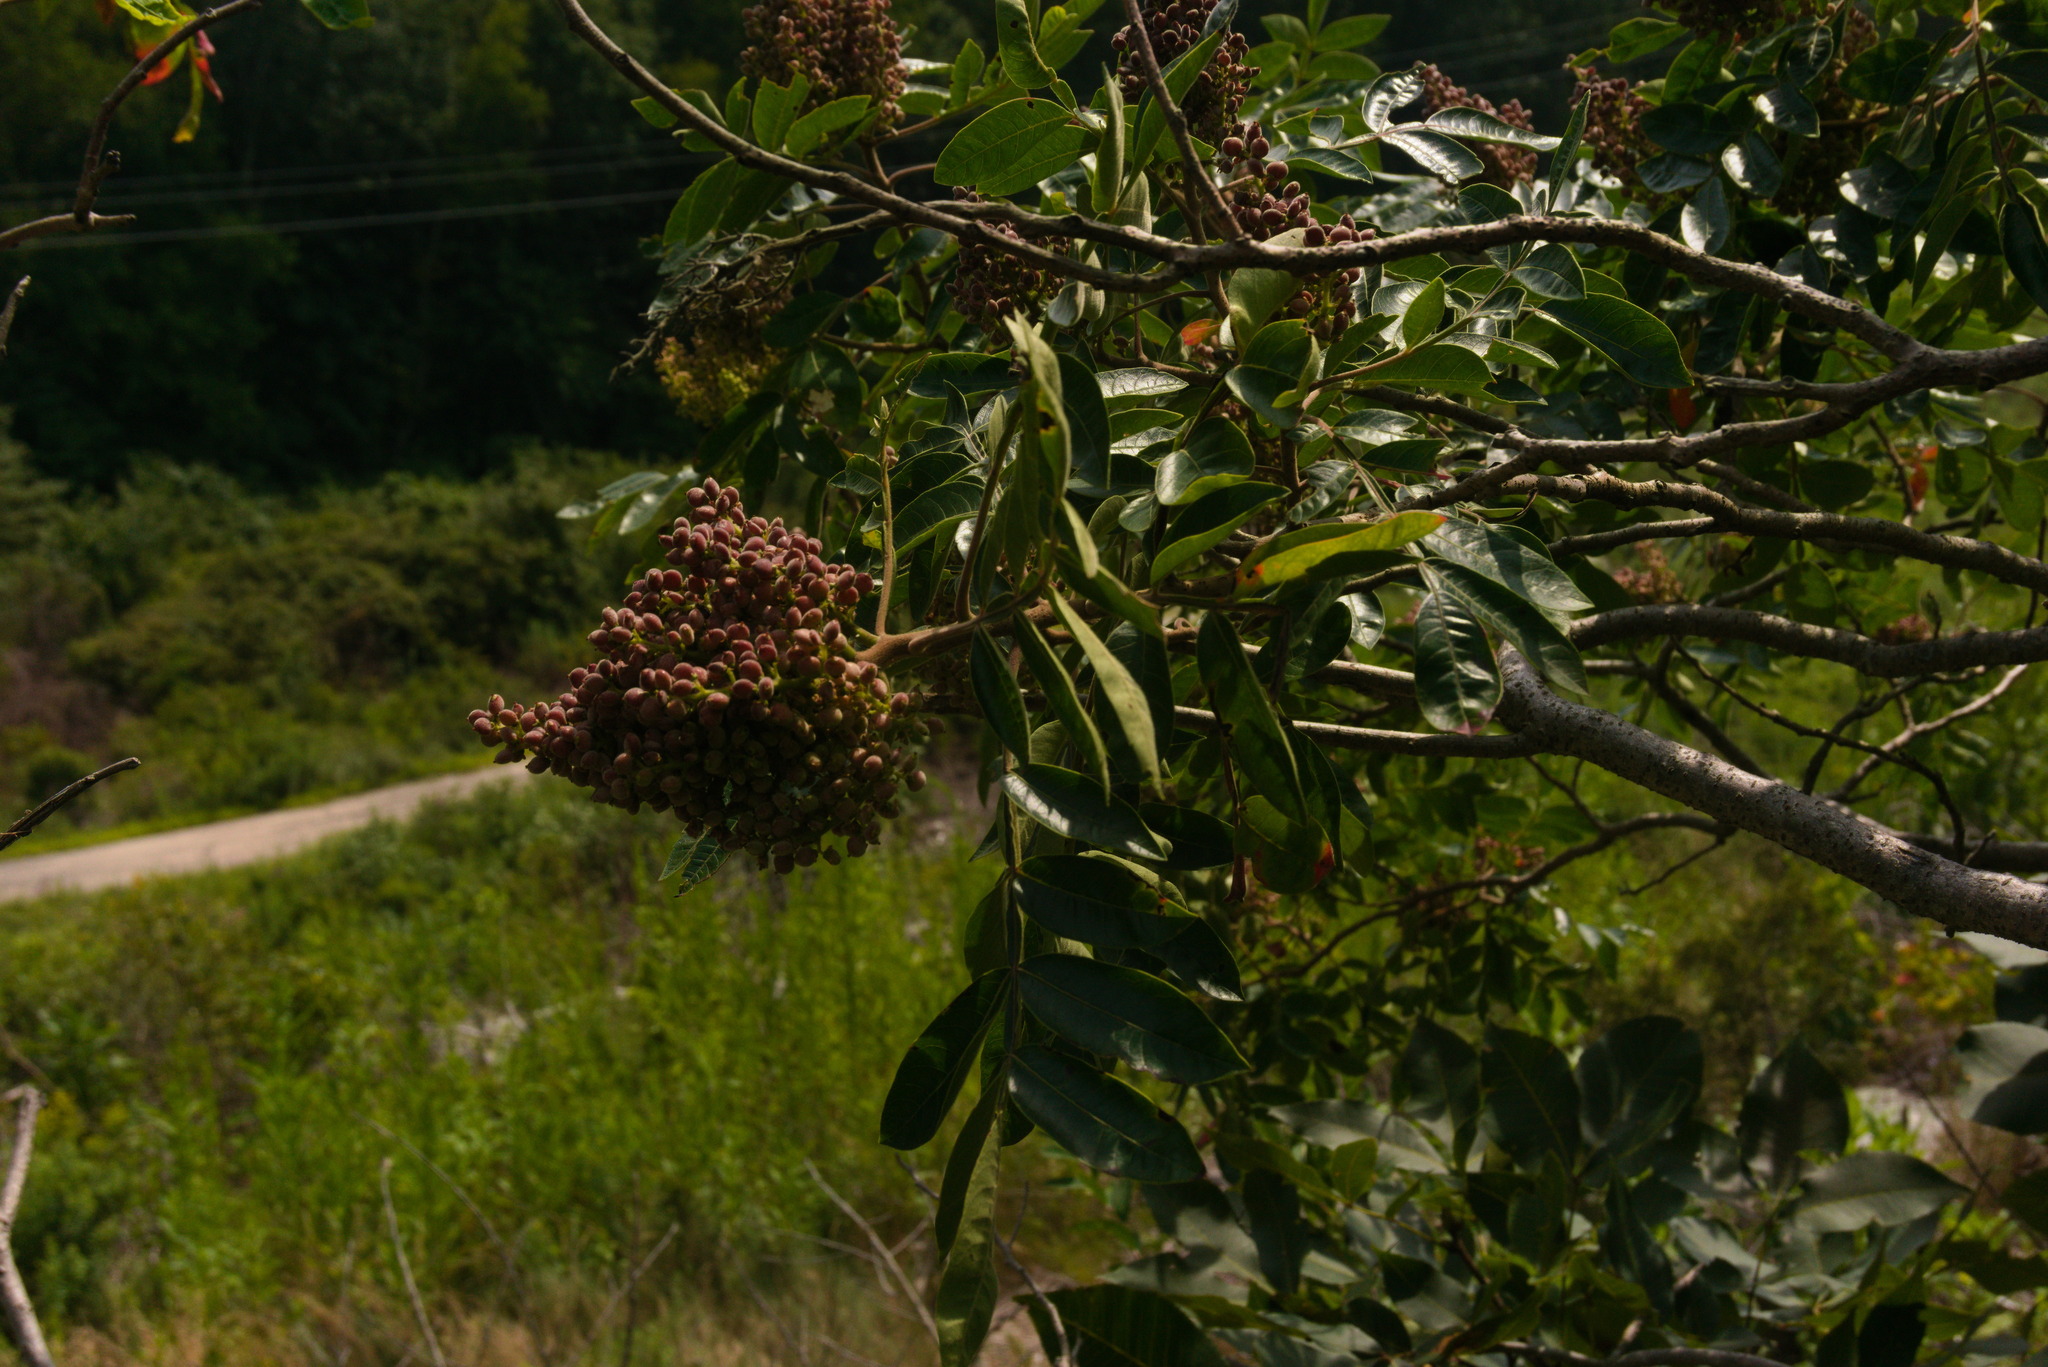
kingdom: Plantae
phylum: Tracheophyta
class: Magnoliopsida
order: Sapindales
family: Anacardiaceae
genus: Rhus
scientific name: Rhus copallina
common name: Shining sumac
